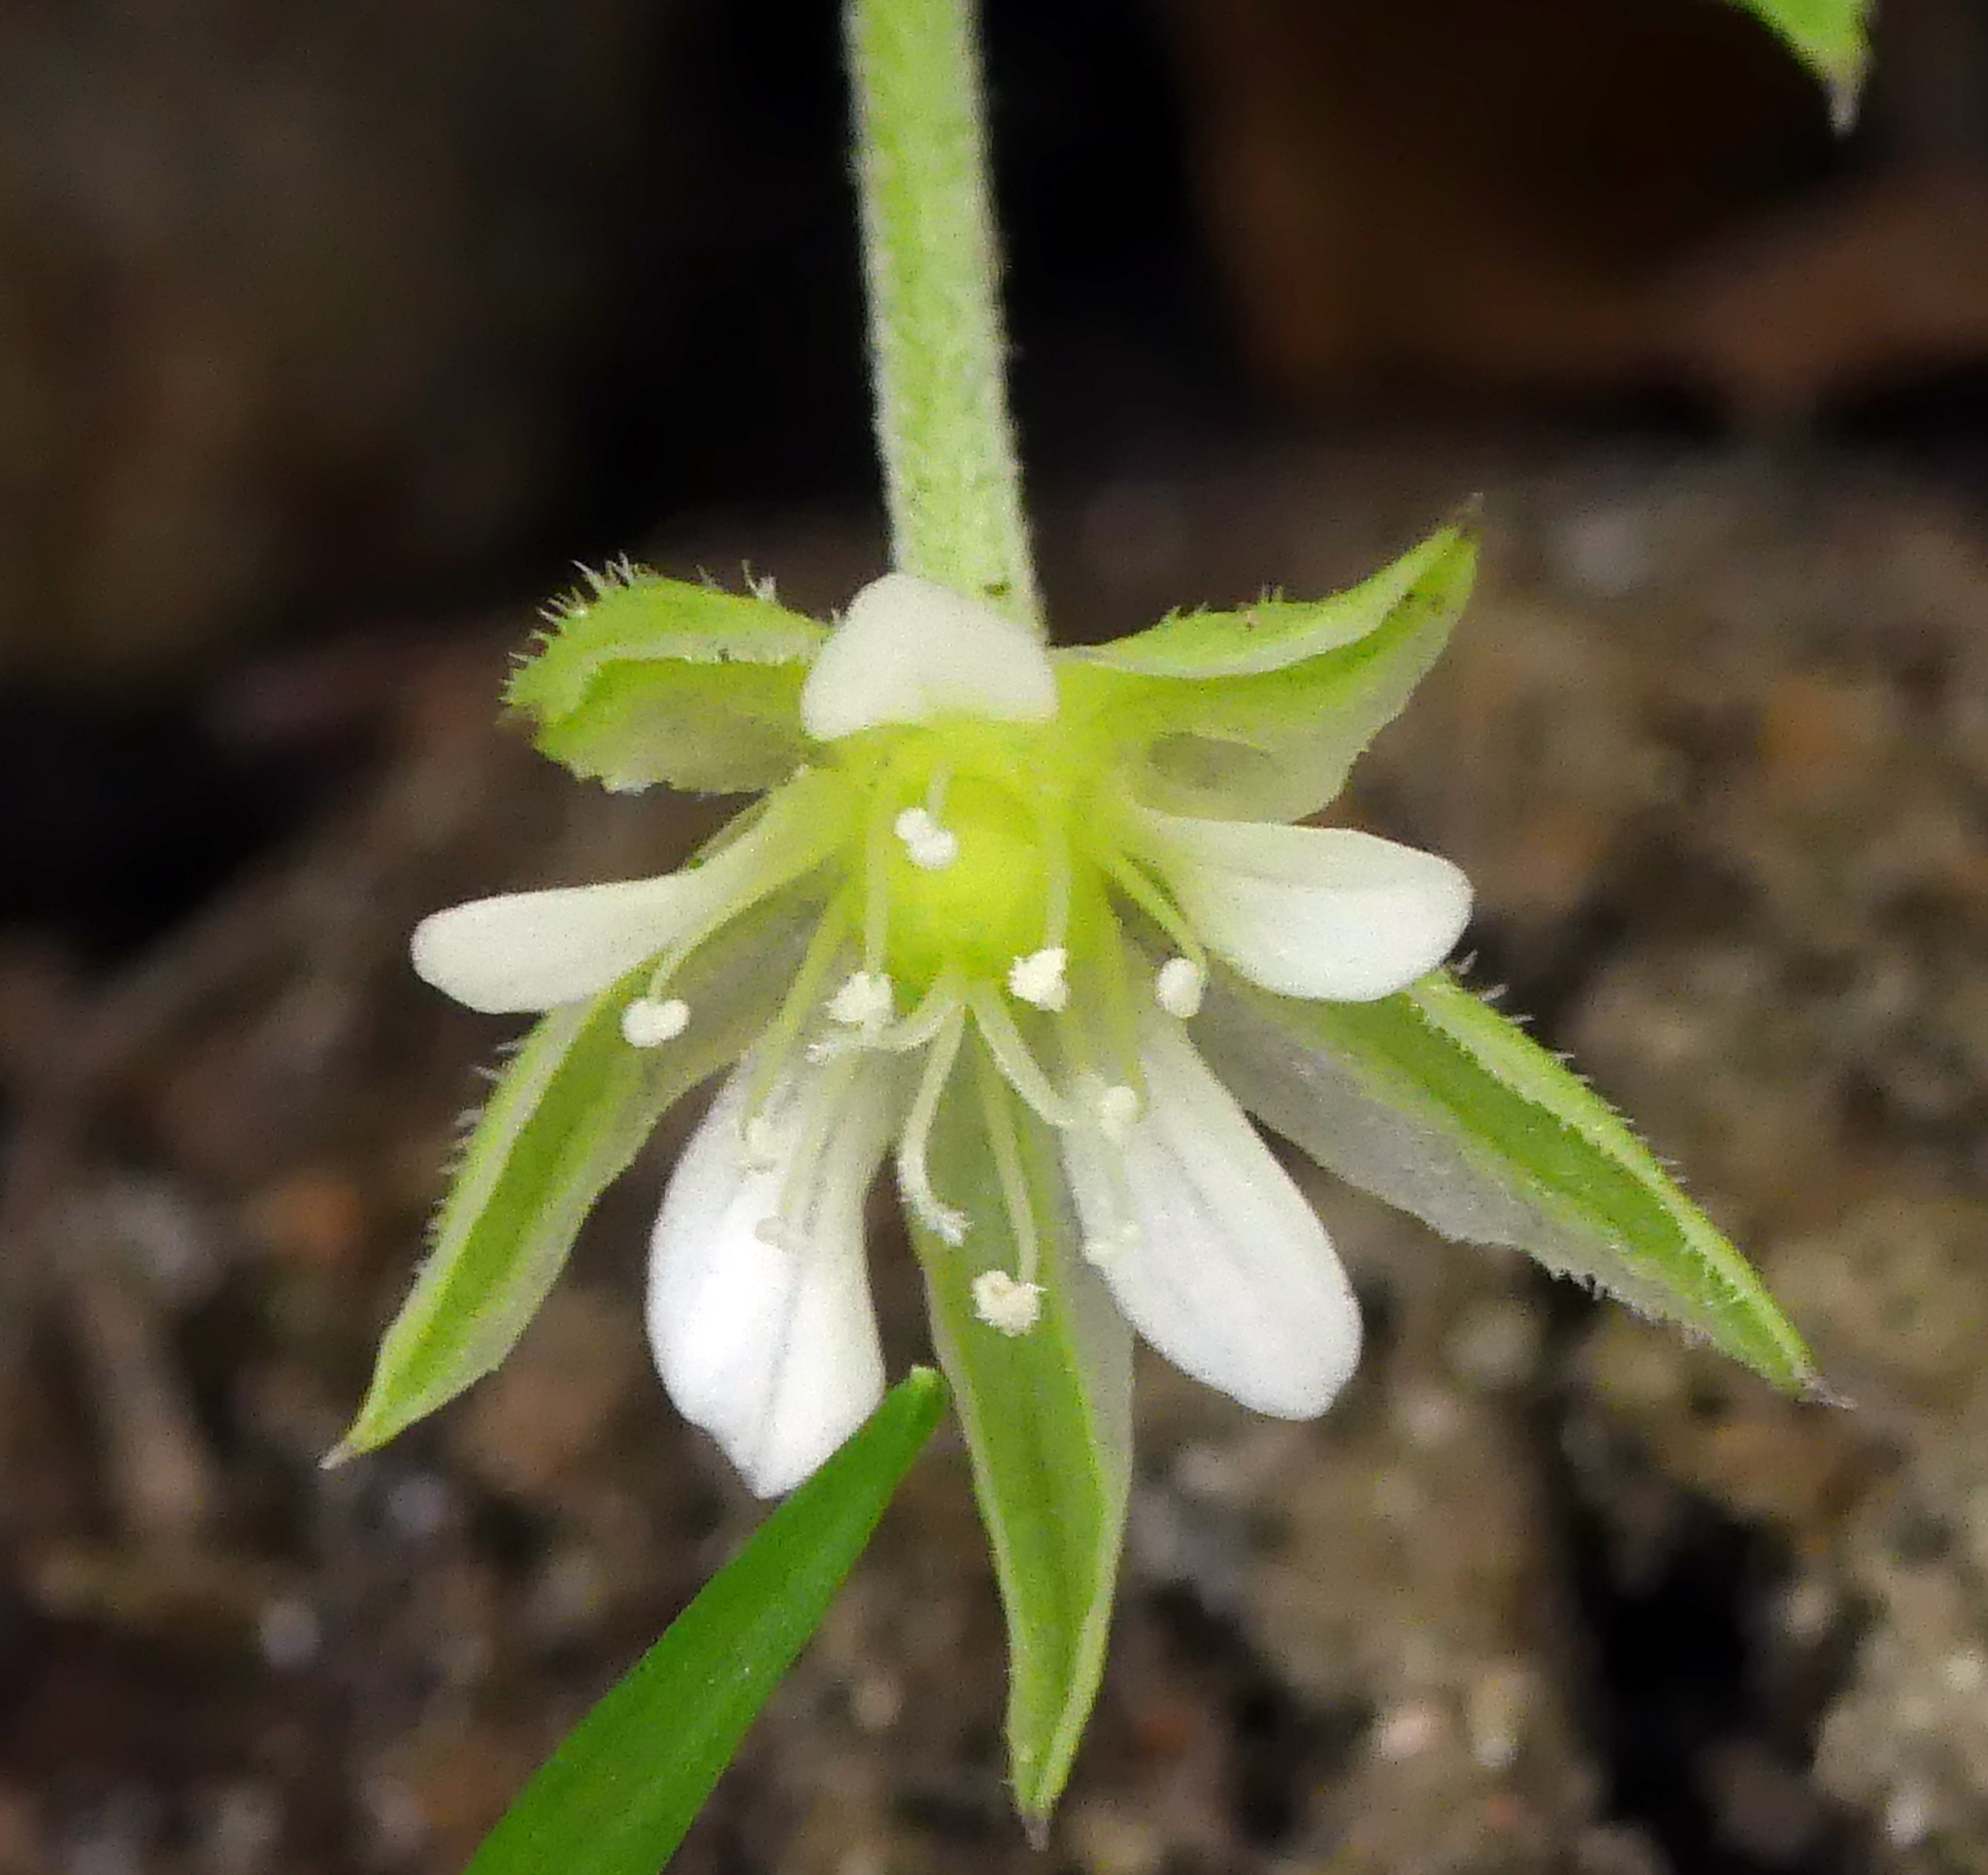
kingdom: Plantae
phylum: Tracheophyta
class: Magnoliopsida
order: Caryophyllales
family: Caryophyllaceae
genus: Moehringia
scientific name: Moehringia trinervia
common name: Three-nerved sandwort
